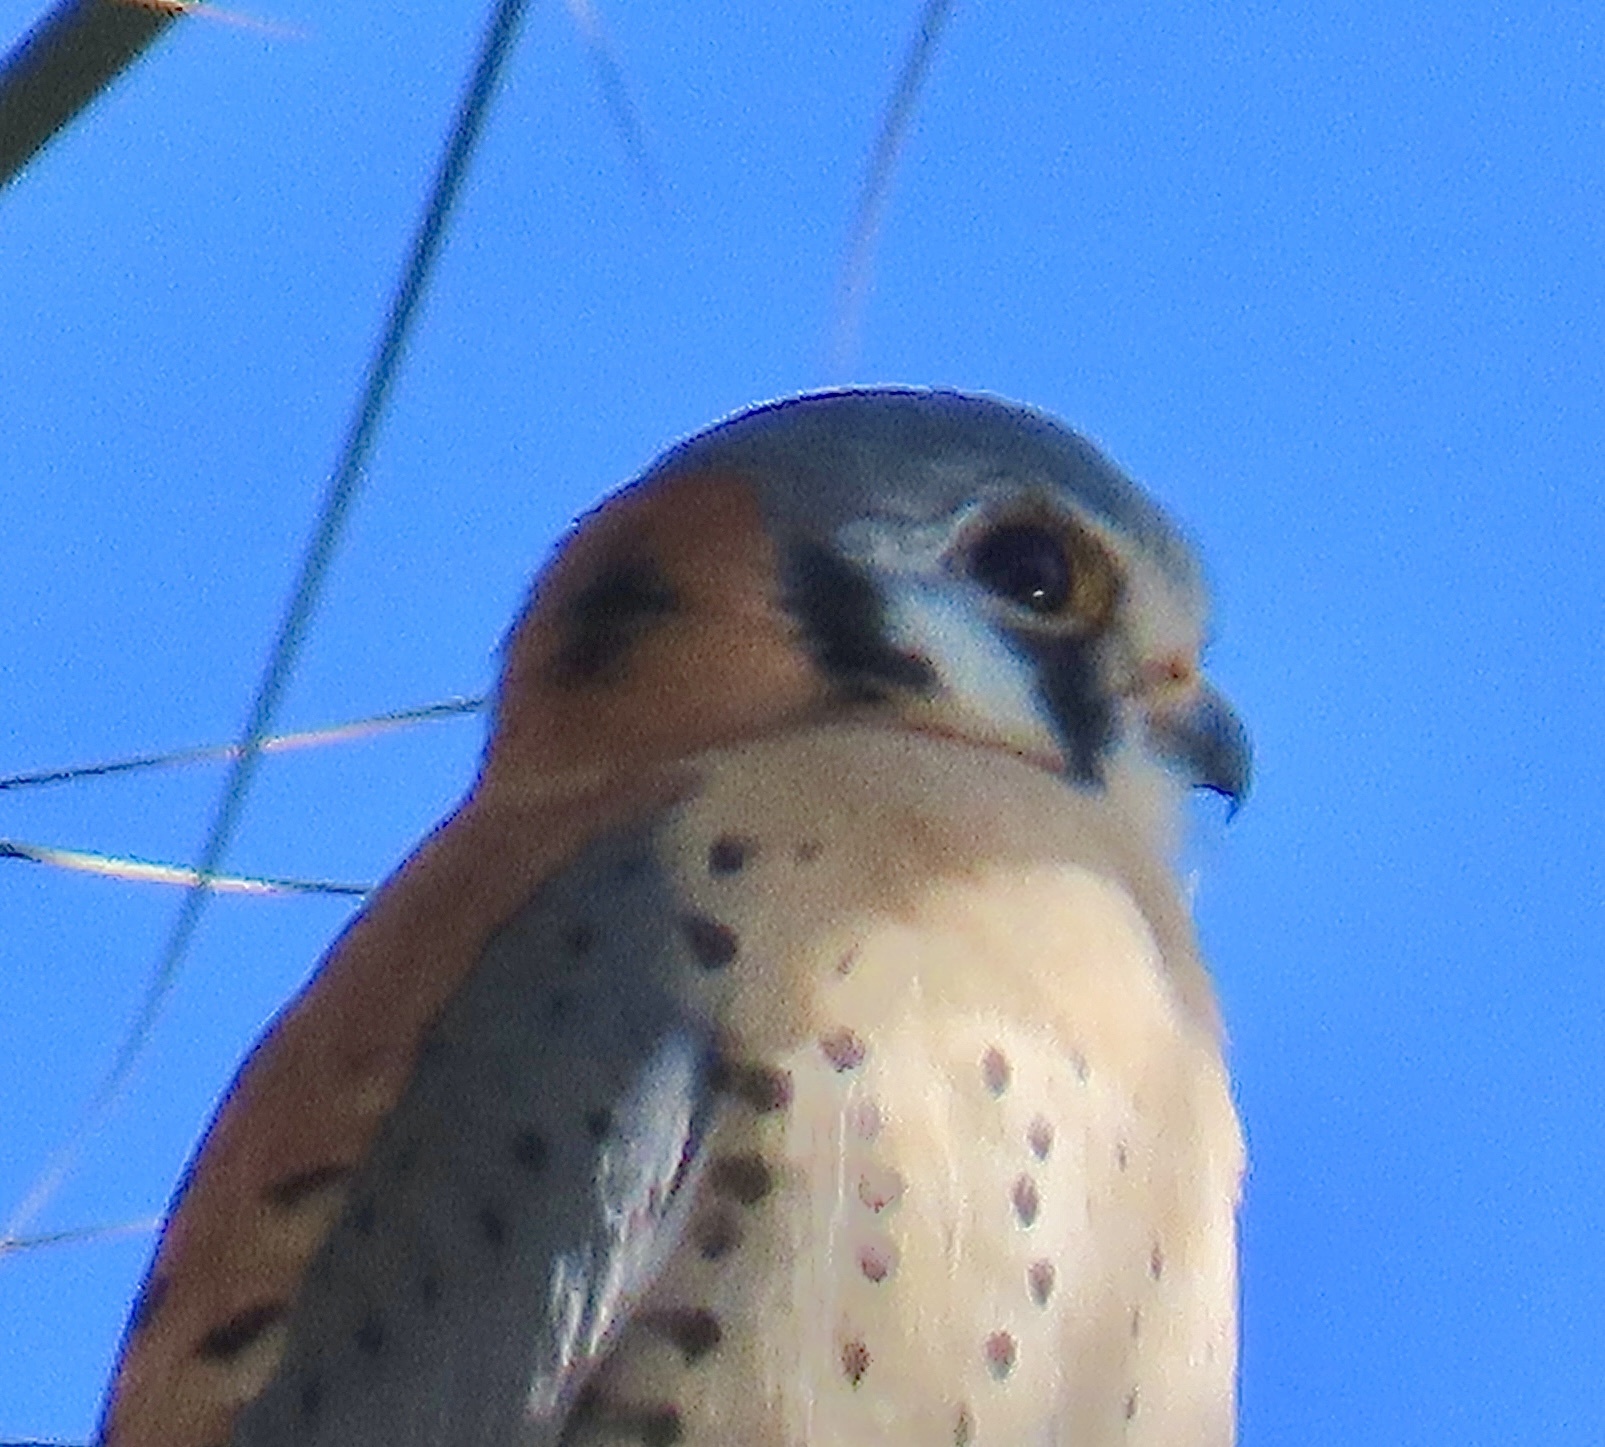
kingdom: Animalia
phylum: Chordata
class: Aves
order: Falconiformes
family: Falconidae
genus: Falco
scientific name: Falco sparverius
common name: American kestrel
